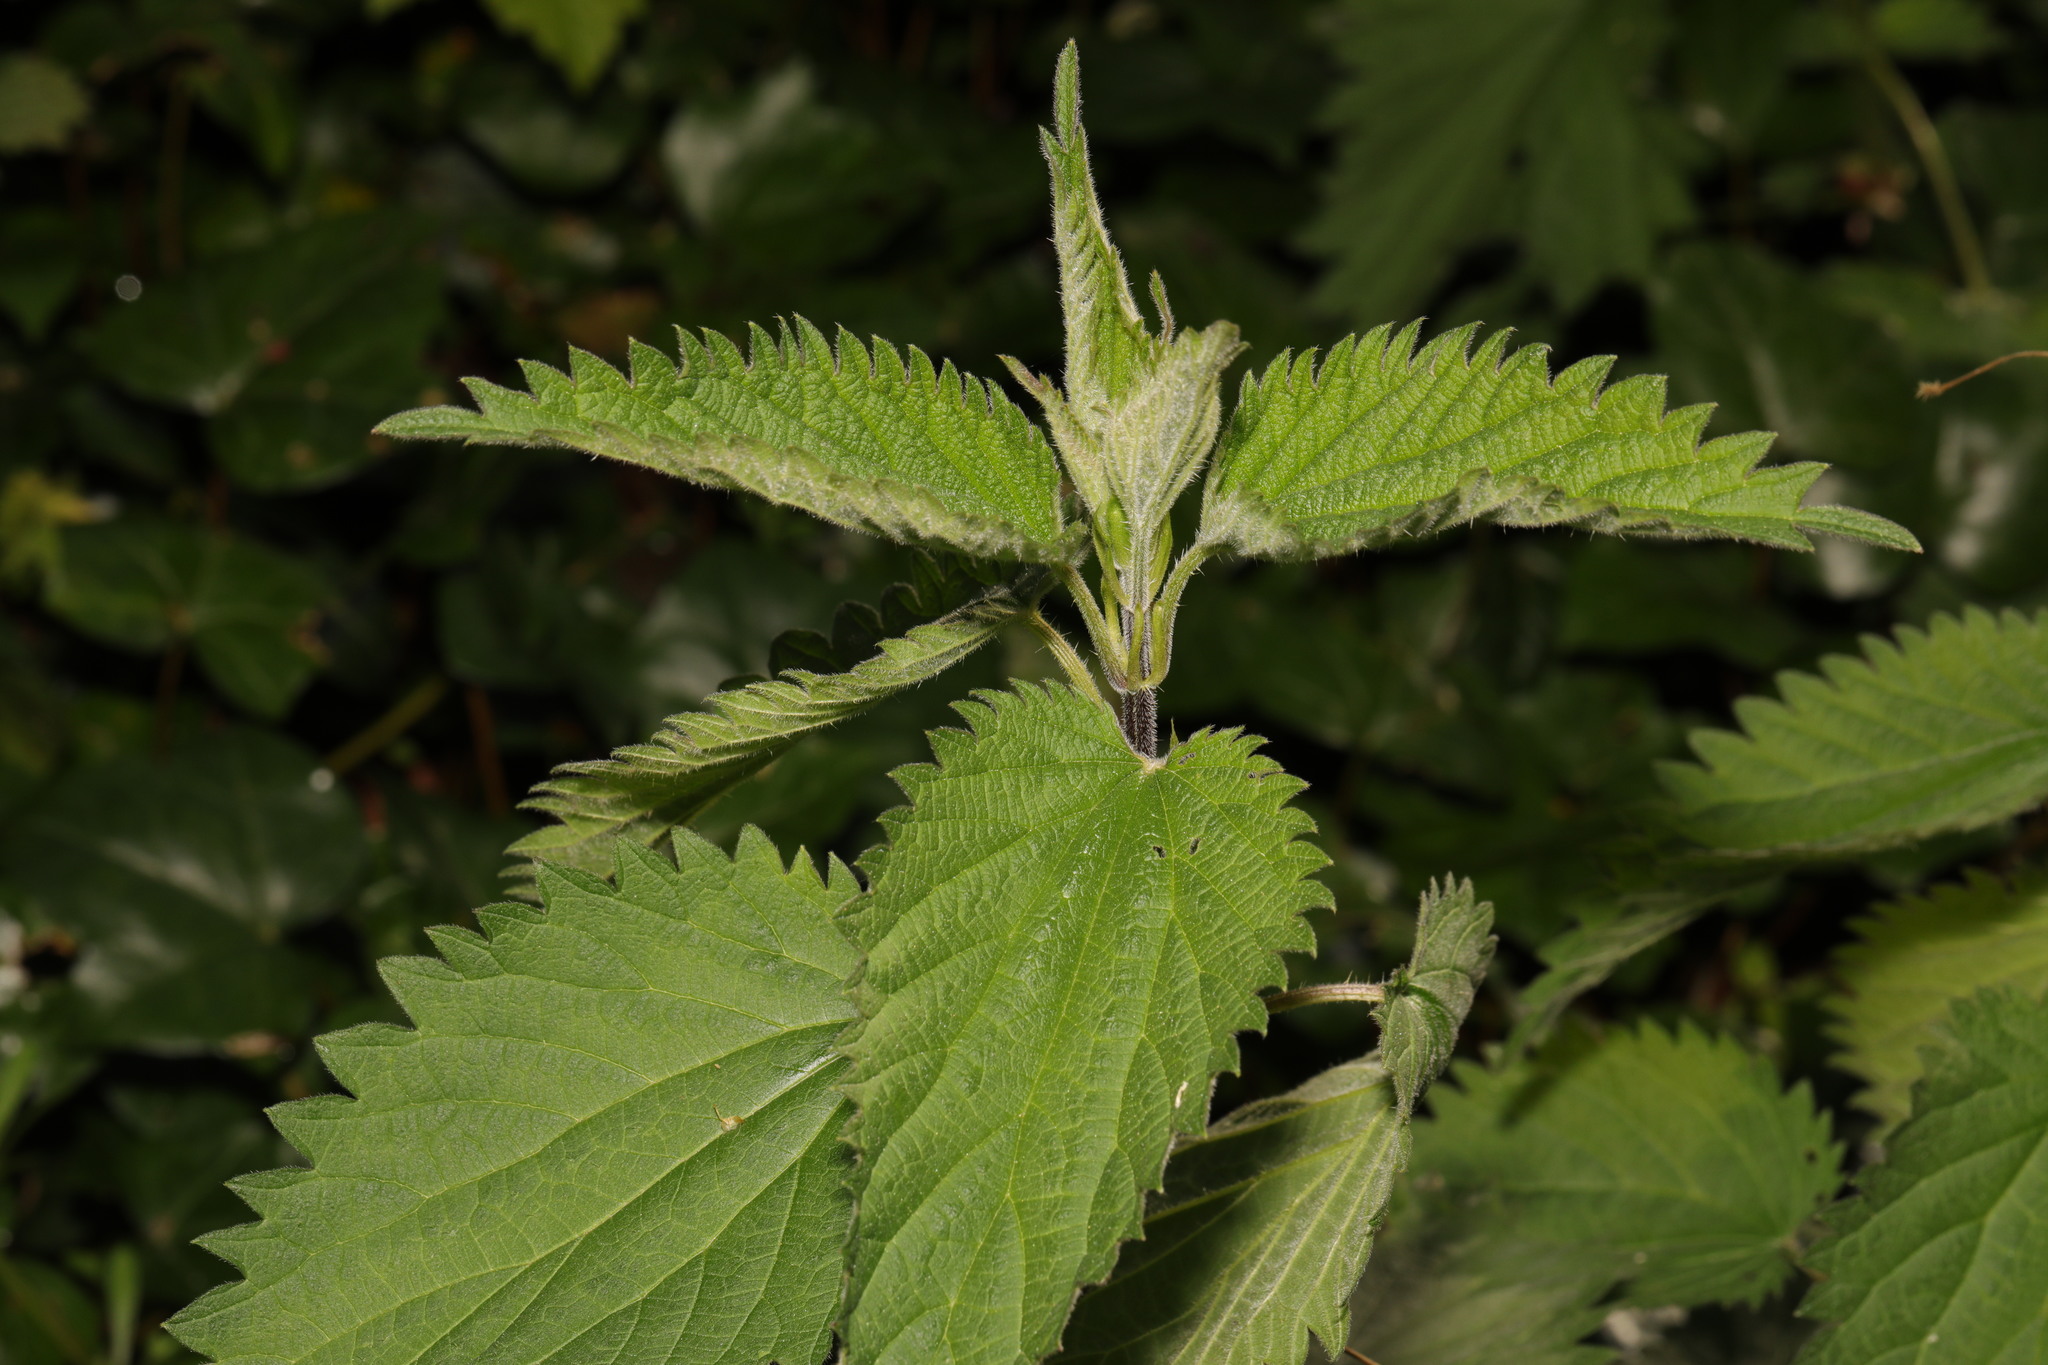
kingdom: Plantae
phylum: Tracheophyta
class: Magnoliopsida
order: Rosales
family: Urticaceae
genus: Urtica
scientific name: Urtica dioica
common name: Common nettle
